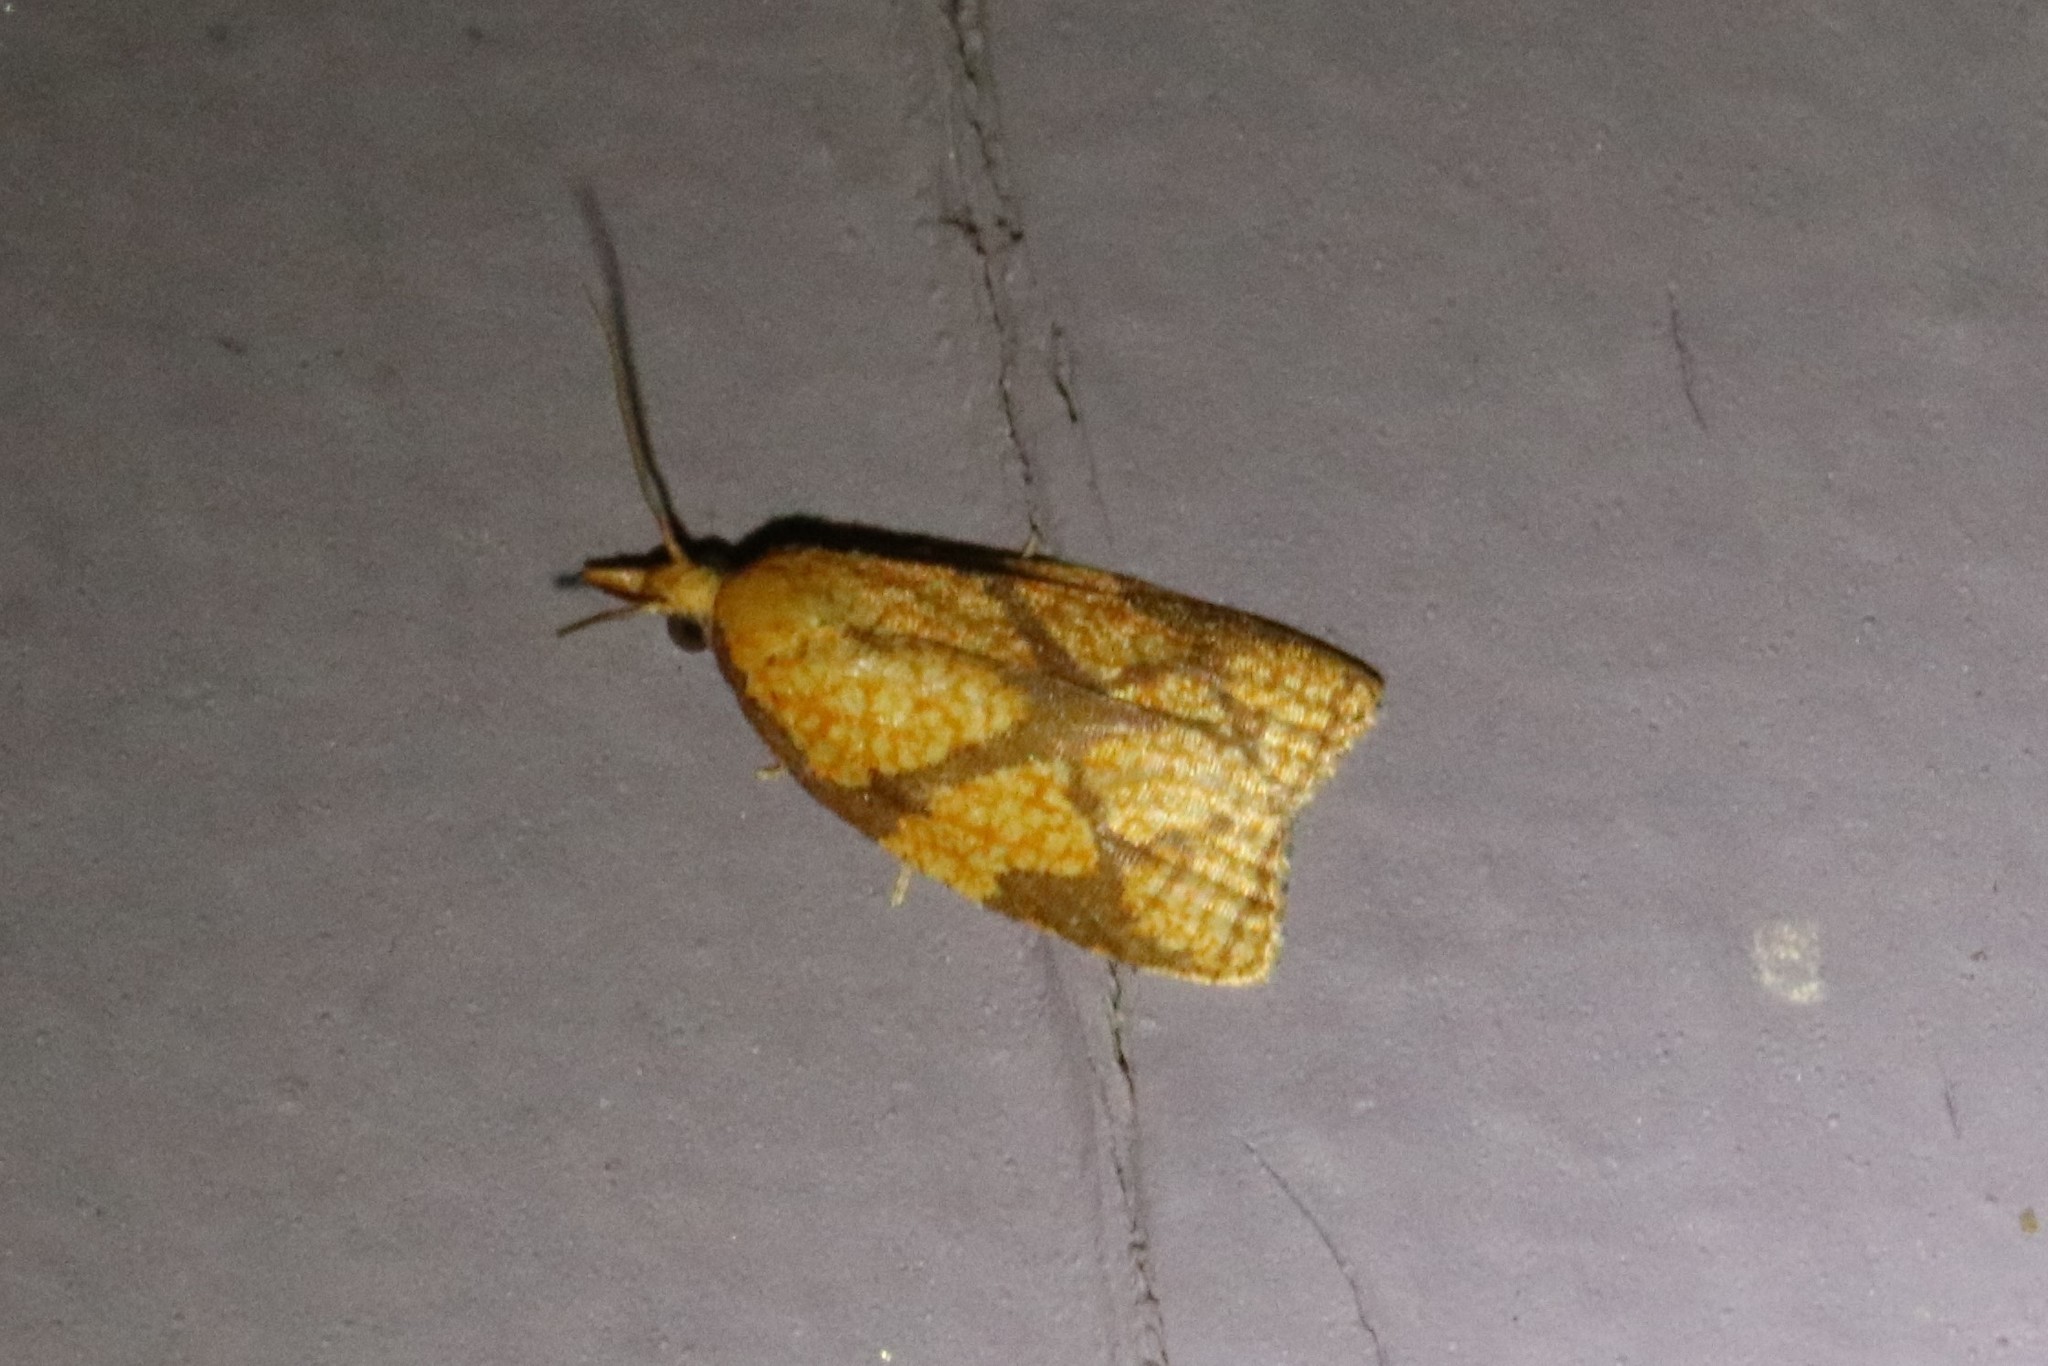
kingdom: Animalia
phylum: Arthropoda
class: Insecta
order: Lepidoptera
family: Tortricidae
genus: Cenopis
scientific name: Cenopis reticulatana
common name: Reticulated fruitworm moth
